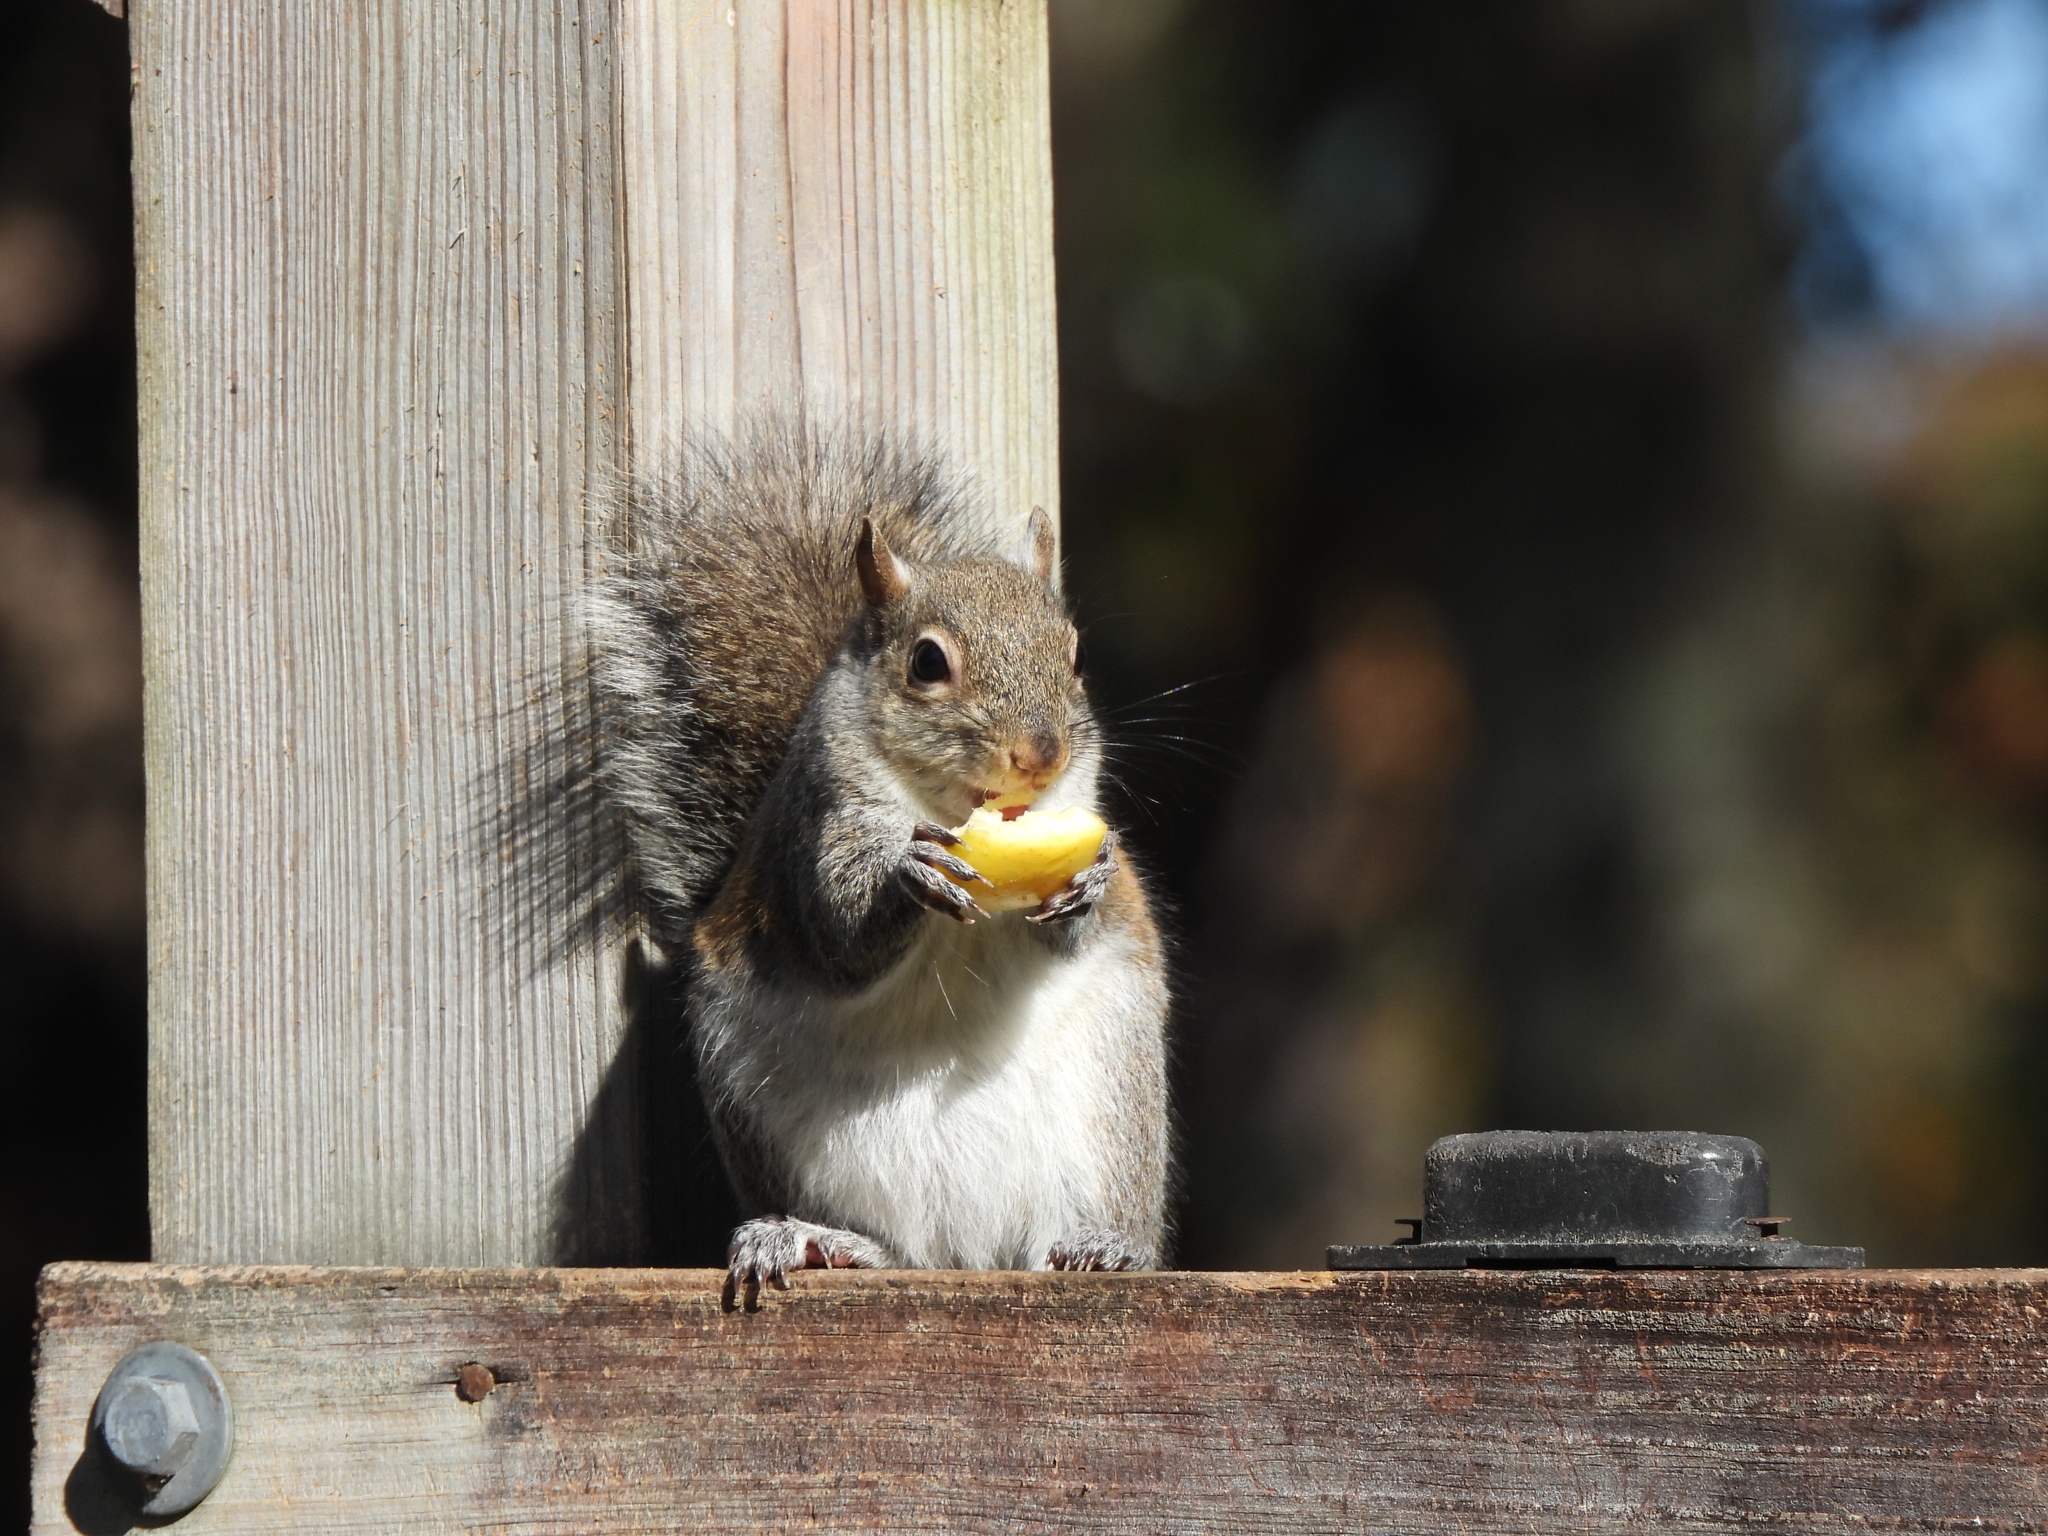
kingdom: Animalia
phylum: Chordata
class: Mammalia
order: Rodentia
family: Sciuridae
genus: Sciurus
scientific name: Sciurus carolinensis
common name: Eastern gray squirrel
